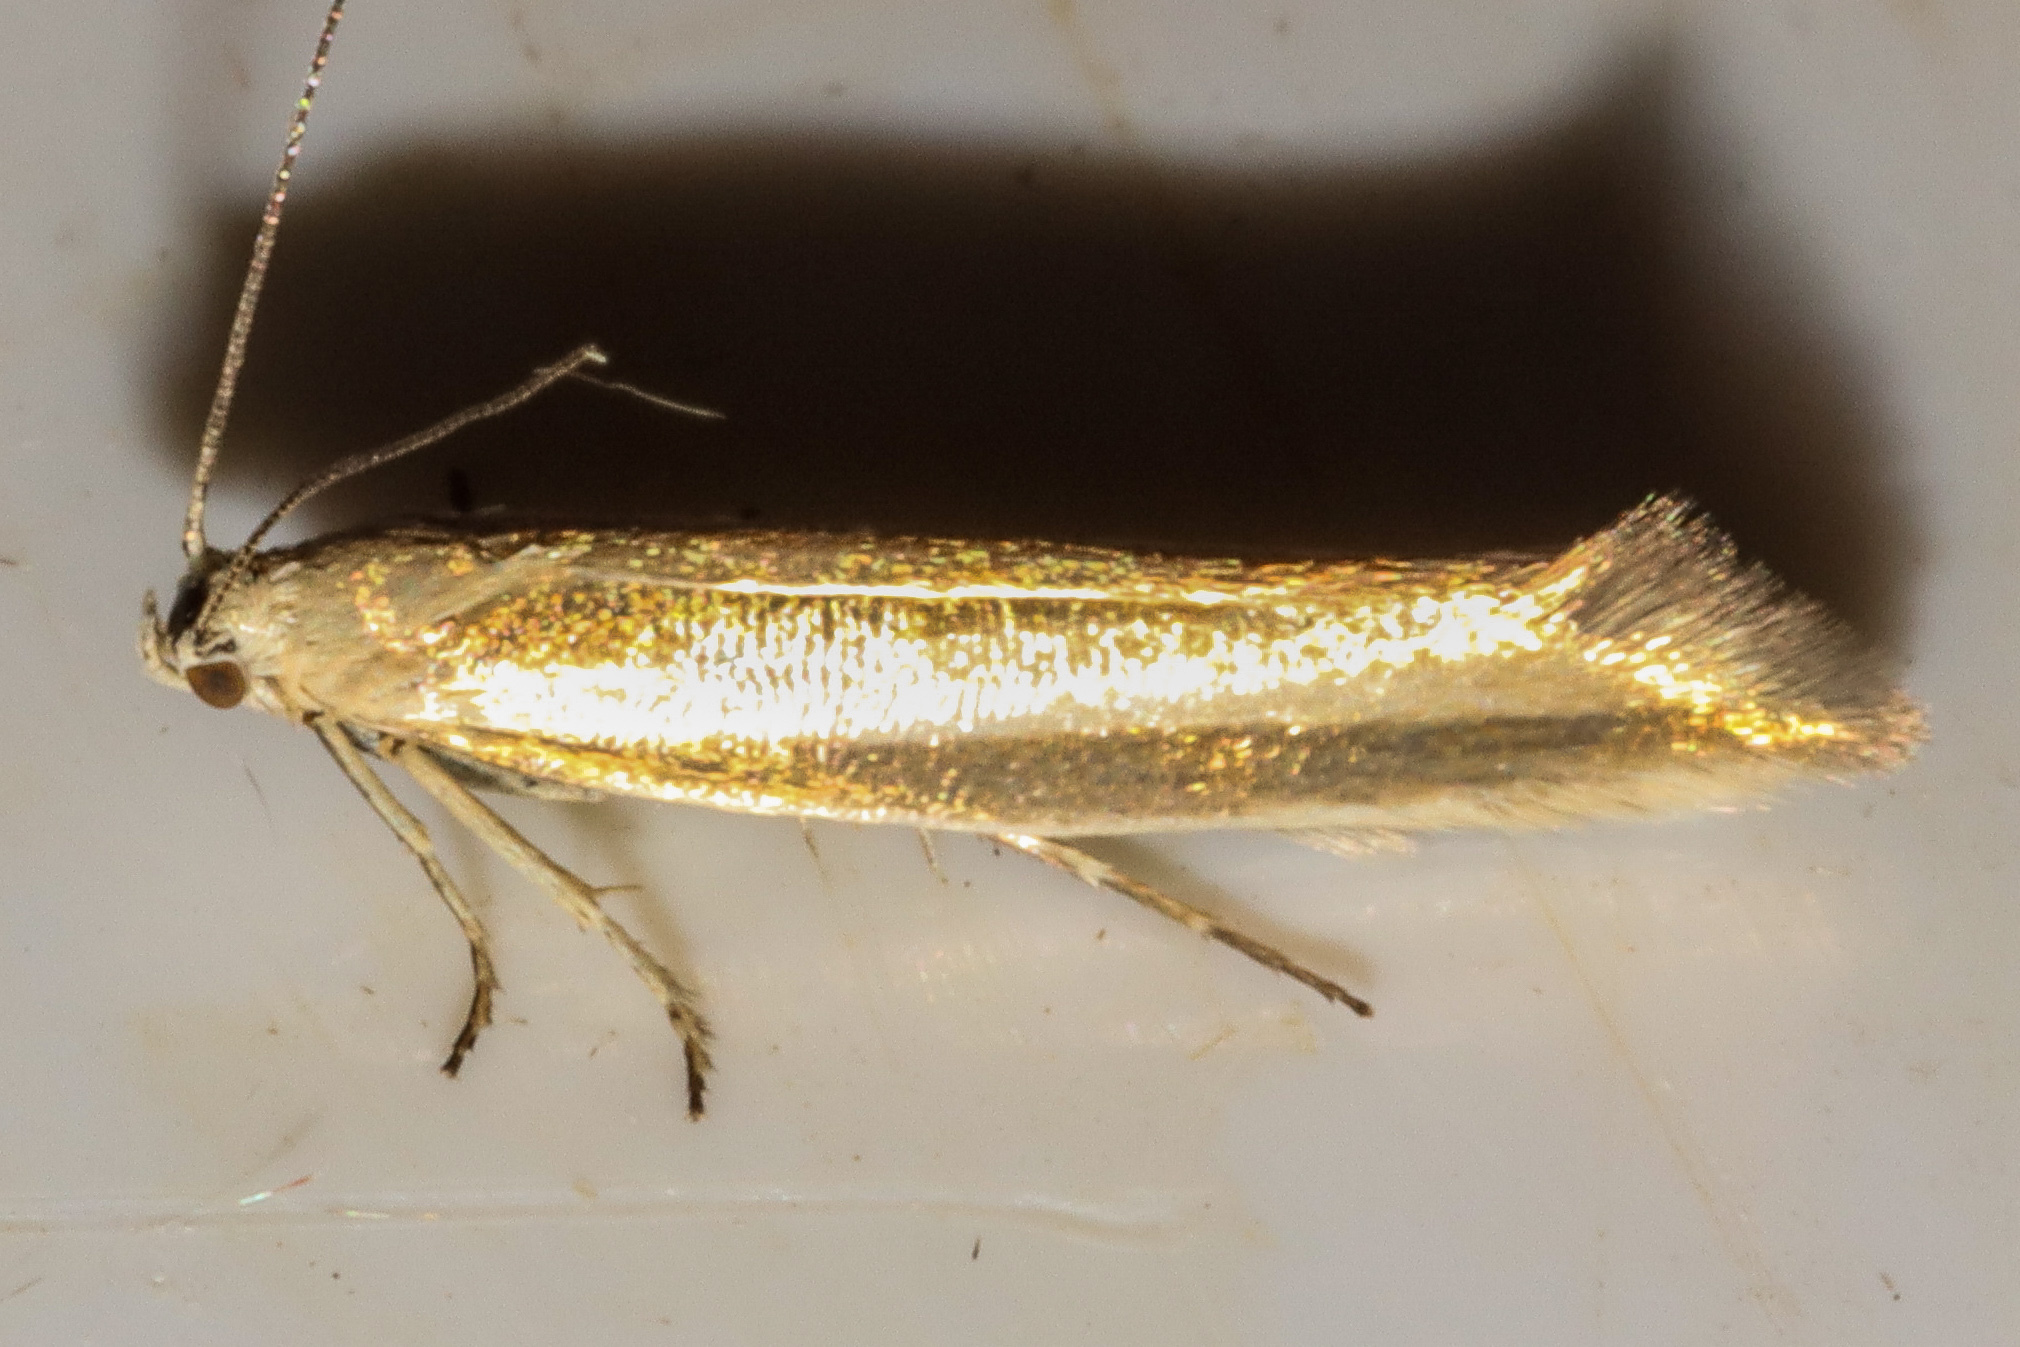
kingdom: Animalia
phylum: Arthropoda
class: Insecta
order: Lepidoptera
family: Glyphipterigidae
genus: Glyphipterix
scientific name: Glyphipterix cionophora
